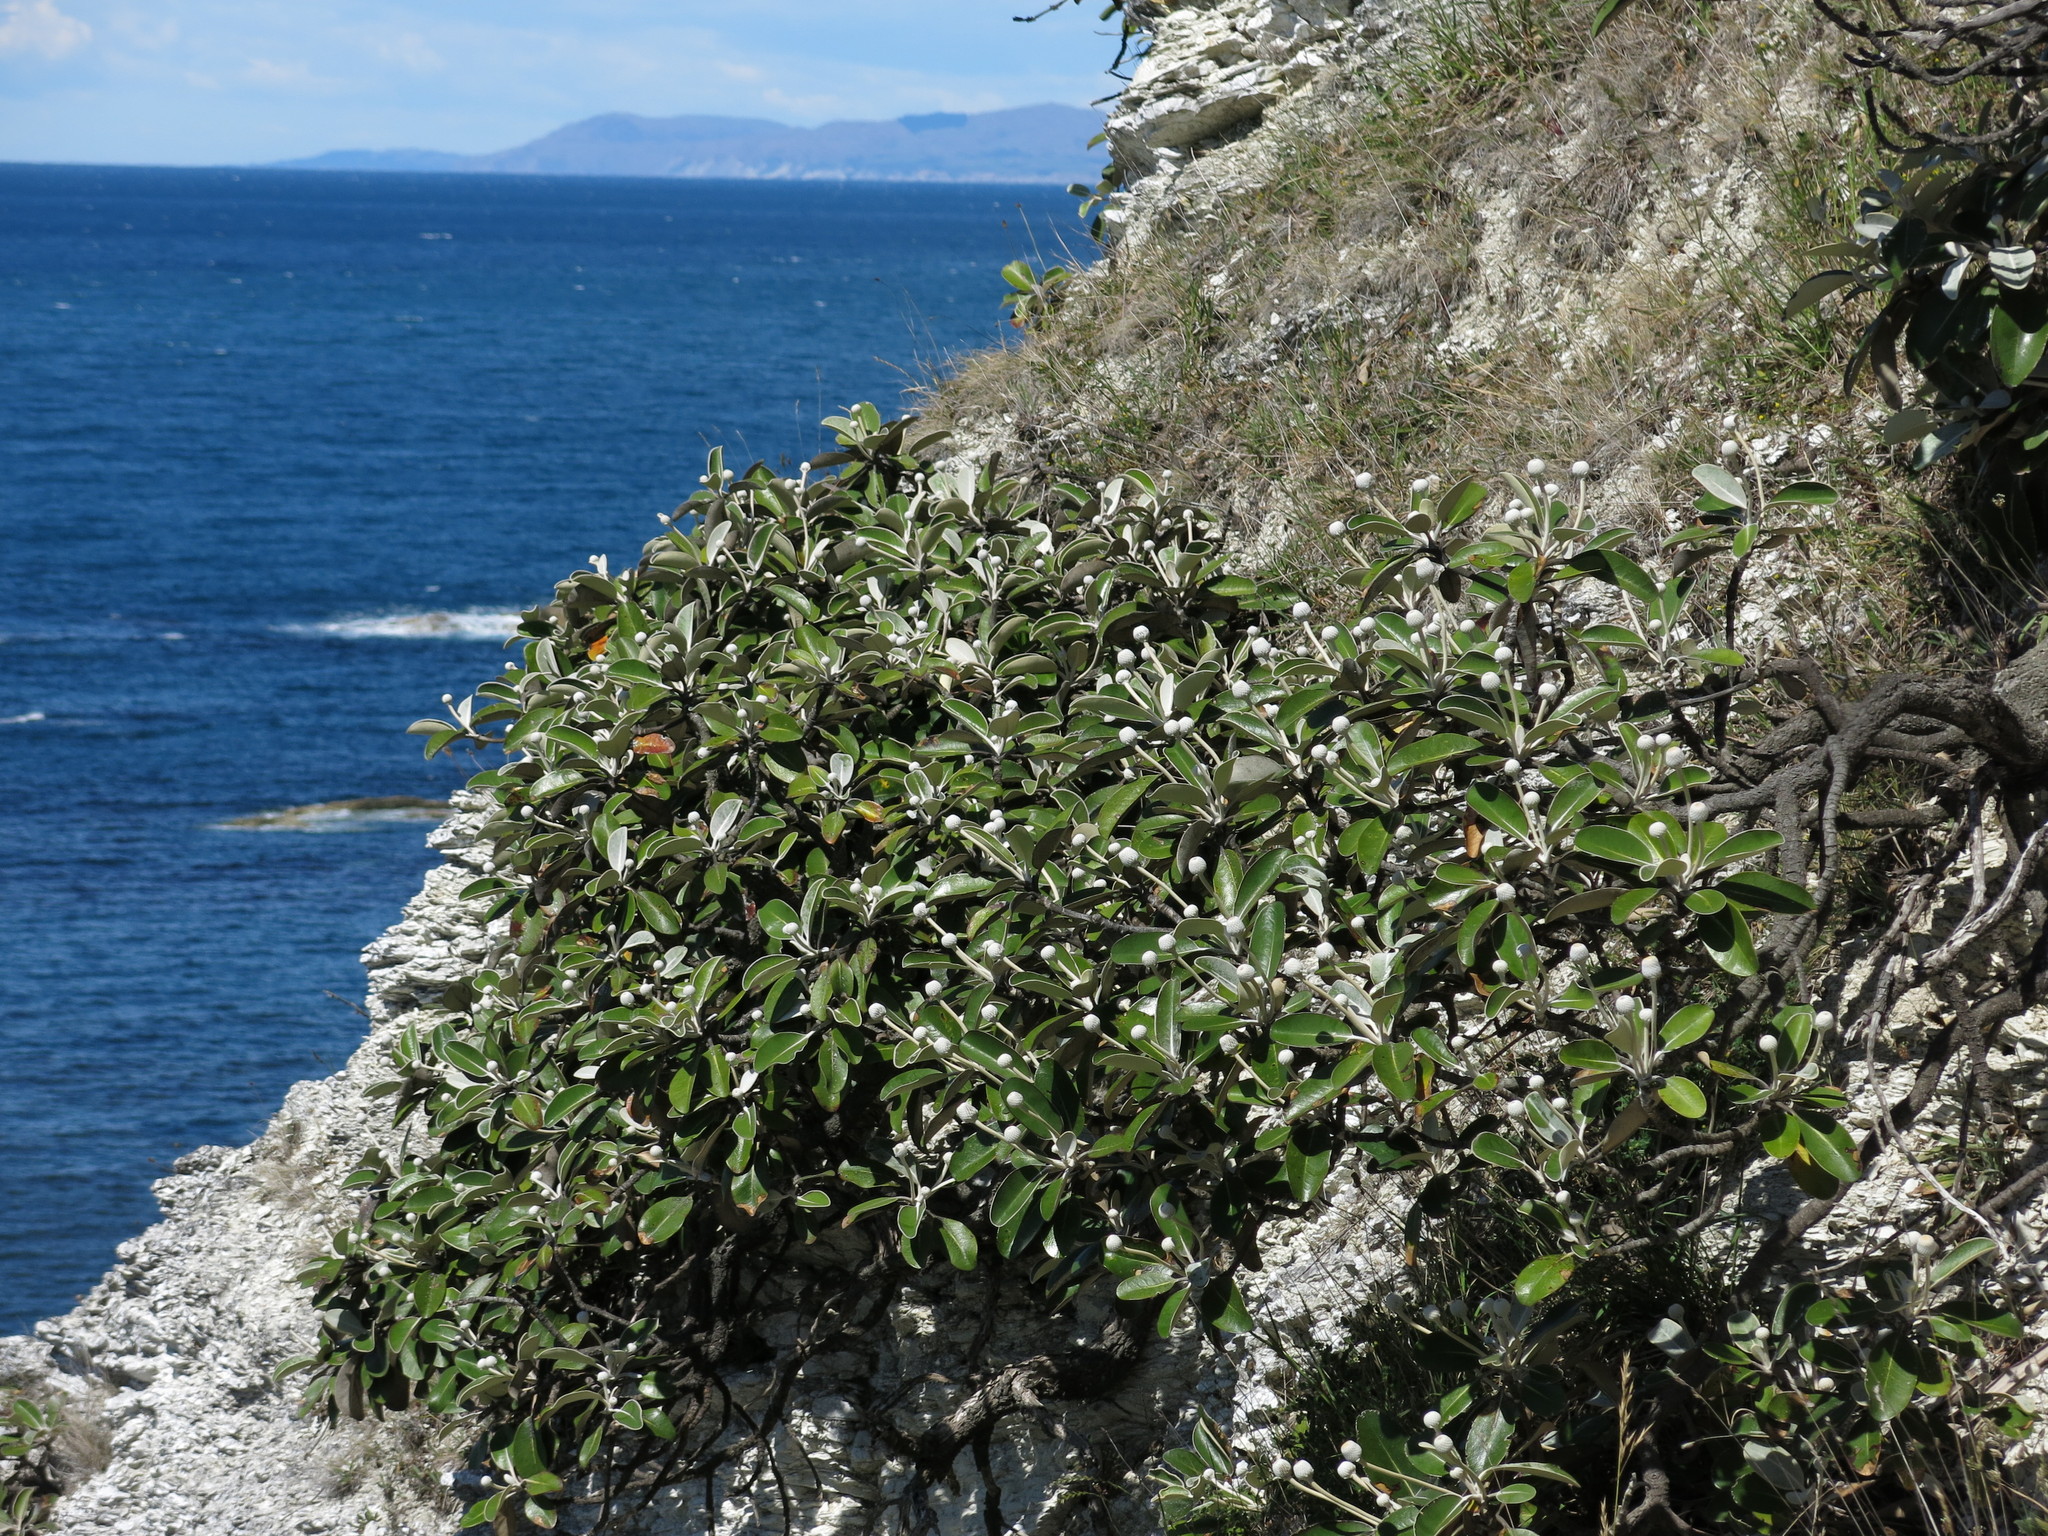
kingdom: Plantae
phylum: Tracheophyta
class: Magnoliopsida
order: Asterales
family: Asteraceae
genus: Pachystegia
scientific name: Pachystegia insignis
